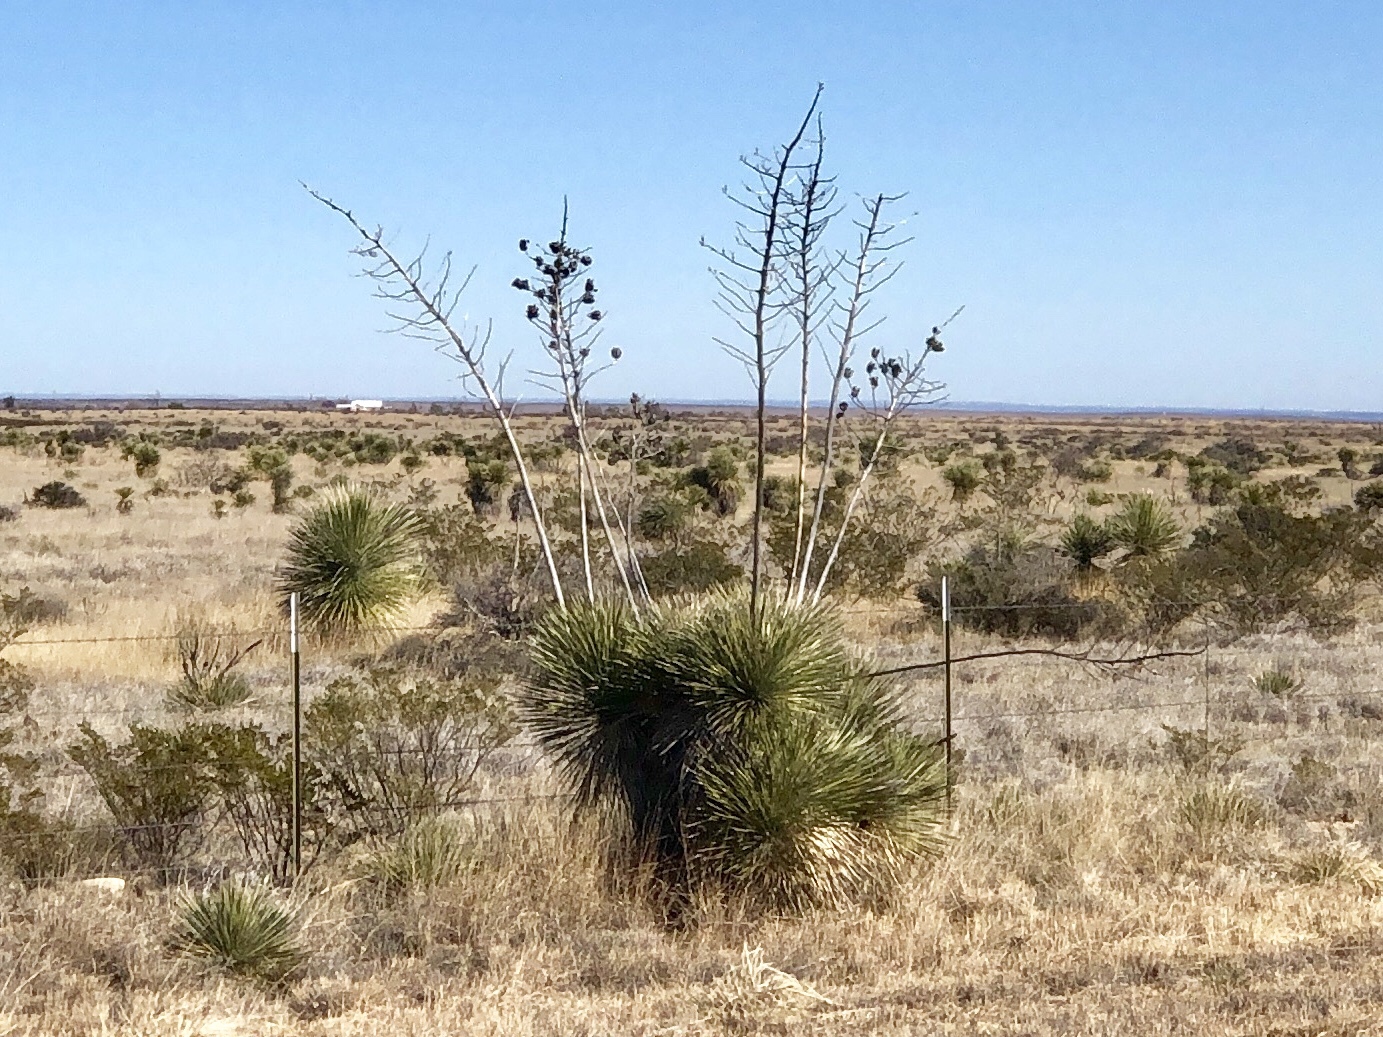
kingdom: Plantae
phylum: Tracheophyta
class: Liliopsida
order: Asparagales
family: Asparagaceae
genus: Yucca
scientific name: Yucca elata
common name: Palmella
